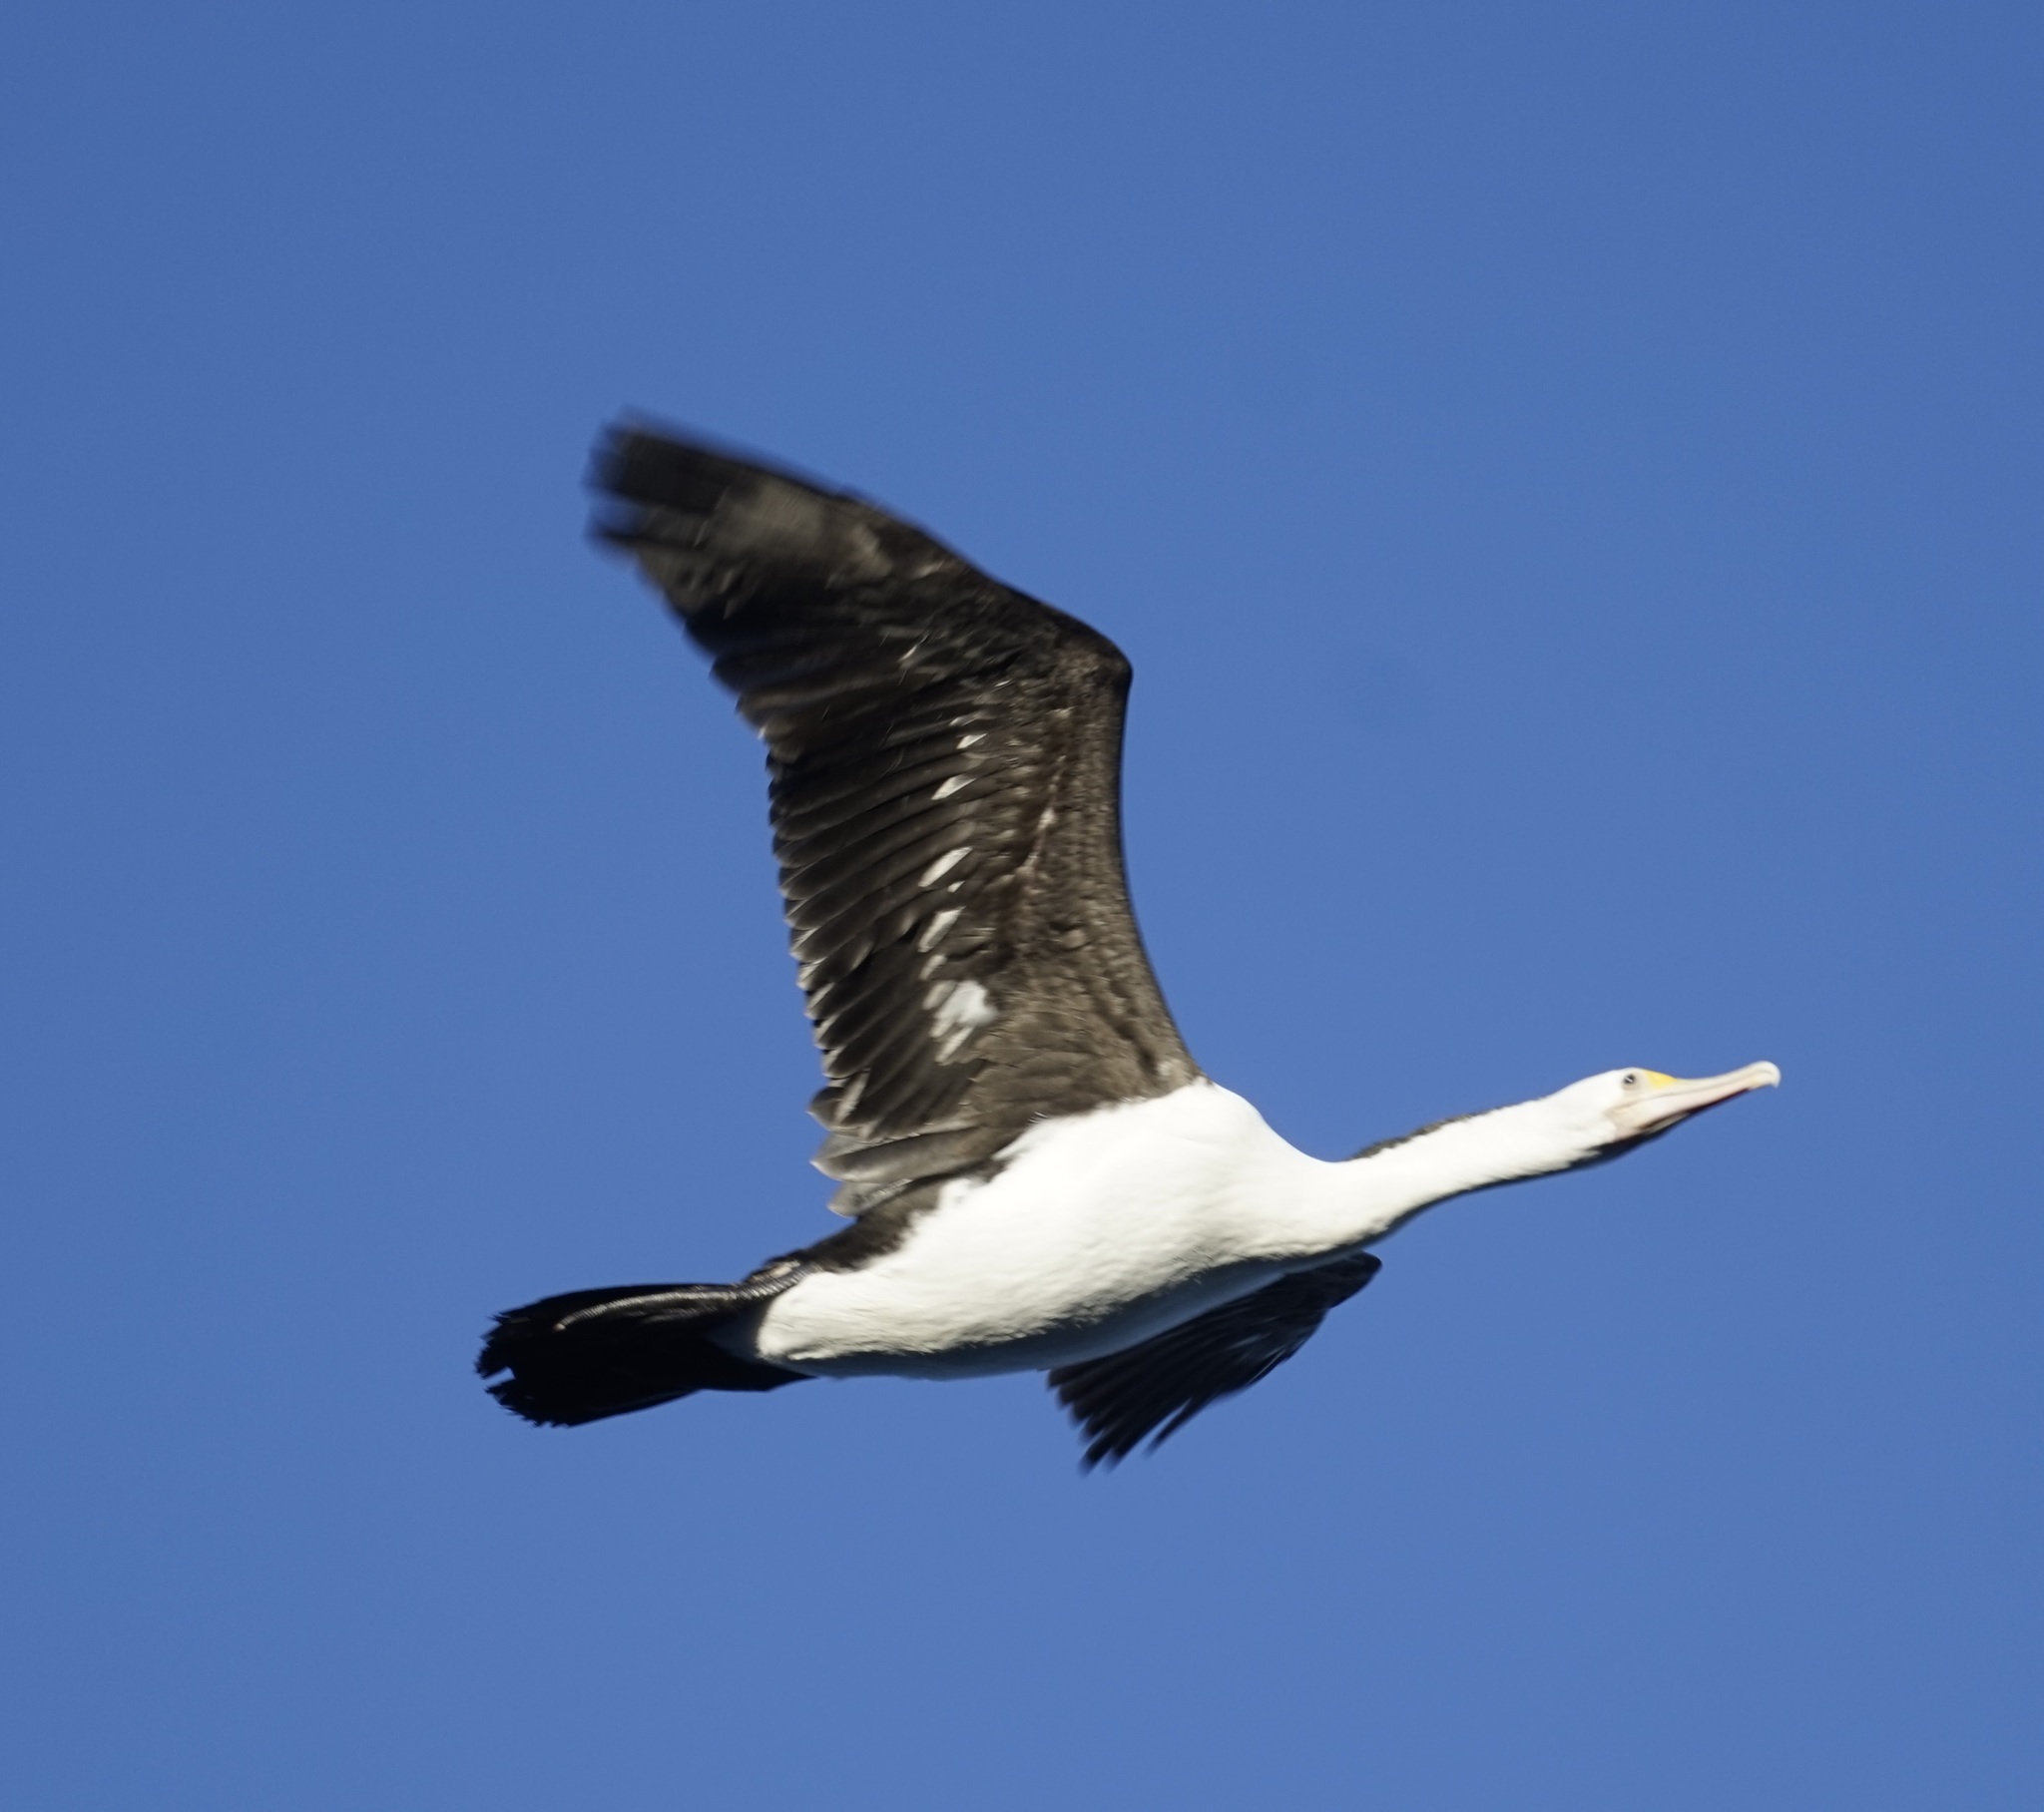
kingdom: Animalia
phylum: Chordata
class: Aves
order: Suliformes
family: Phalacrocoracidae
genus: Phalacrocorax
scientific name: Phalacrocorax varius
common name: Pied cormorant
